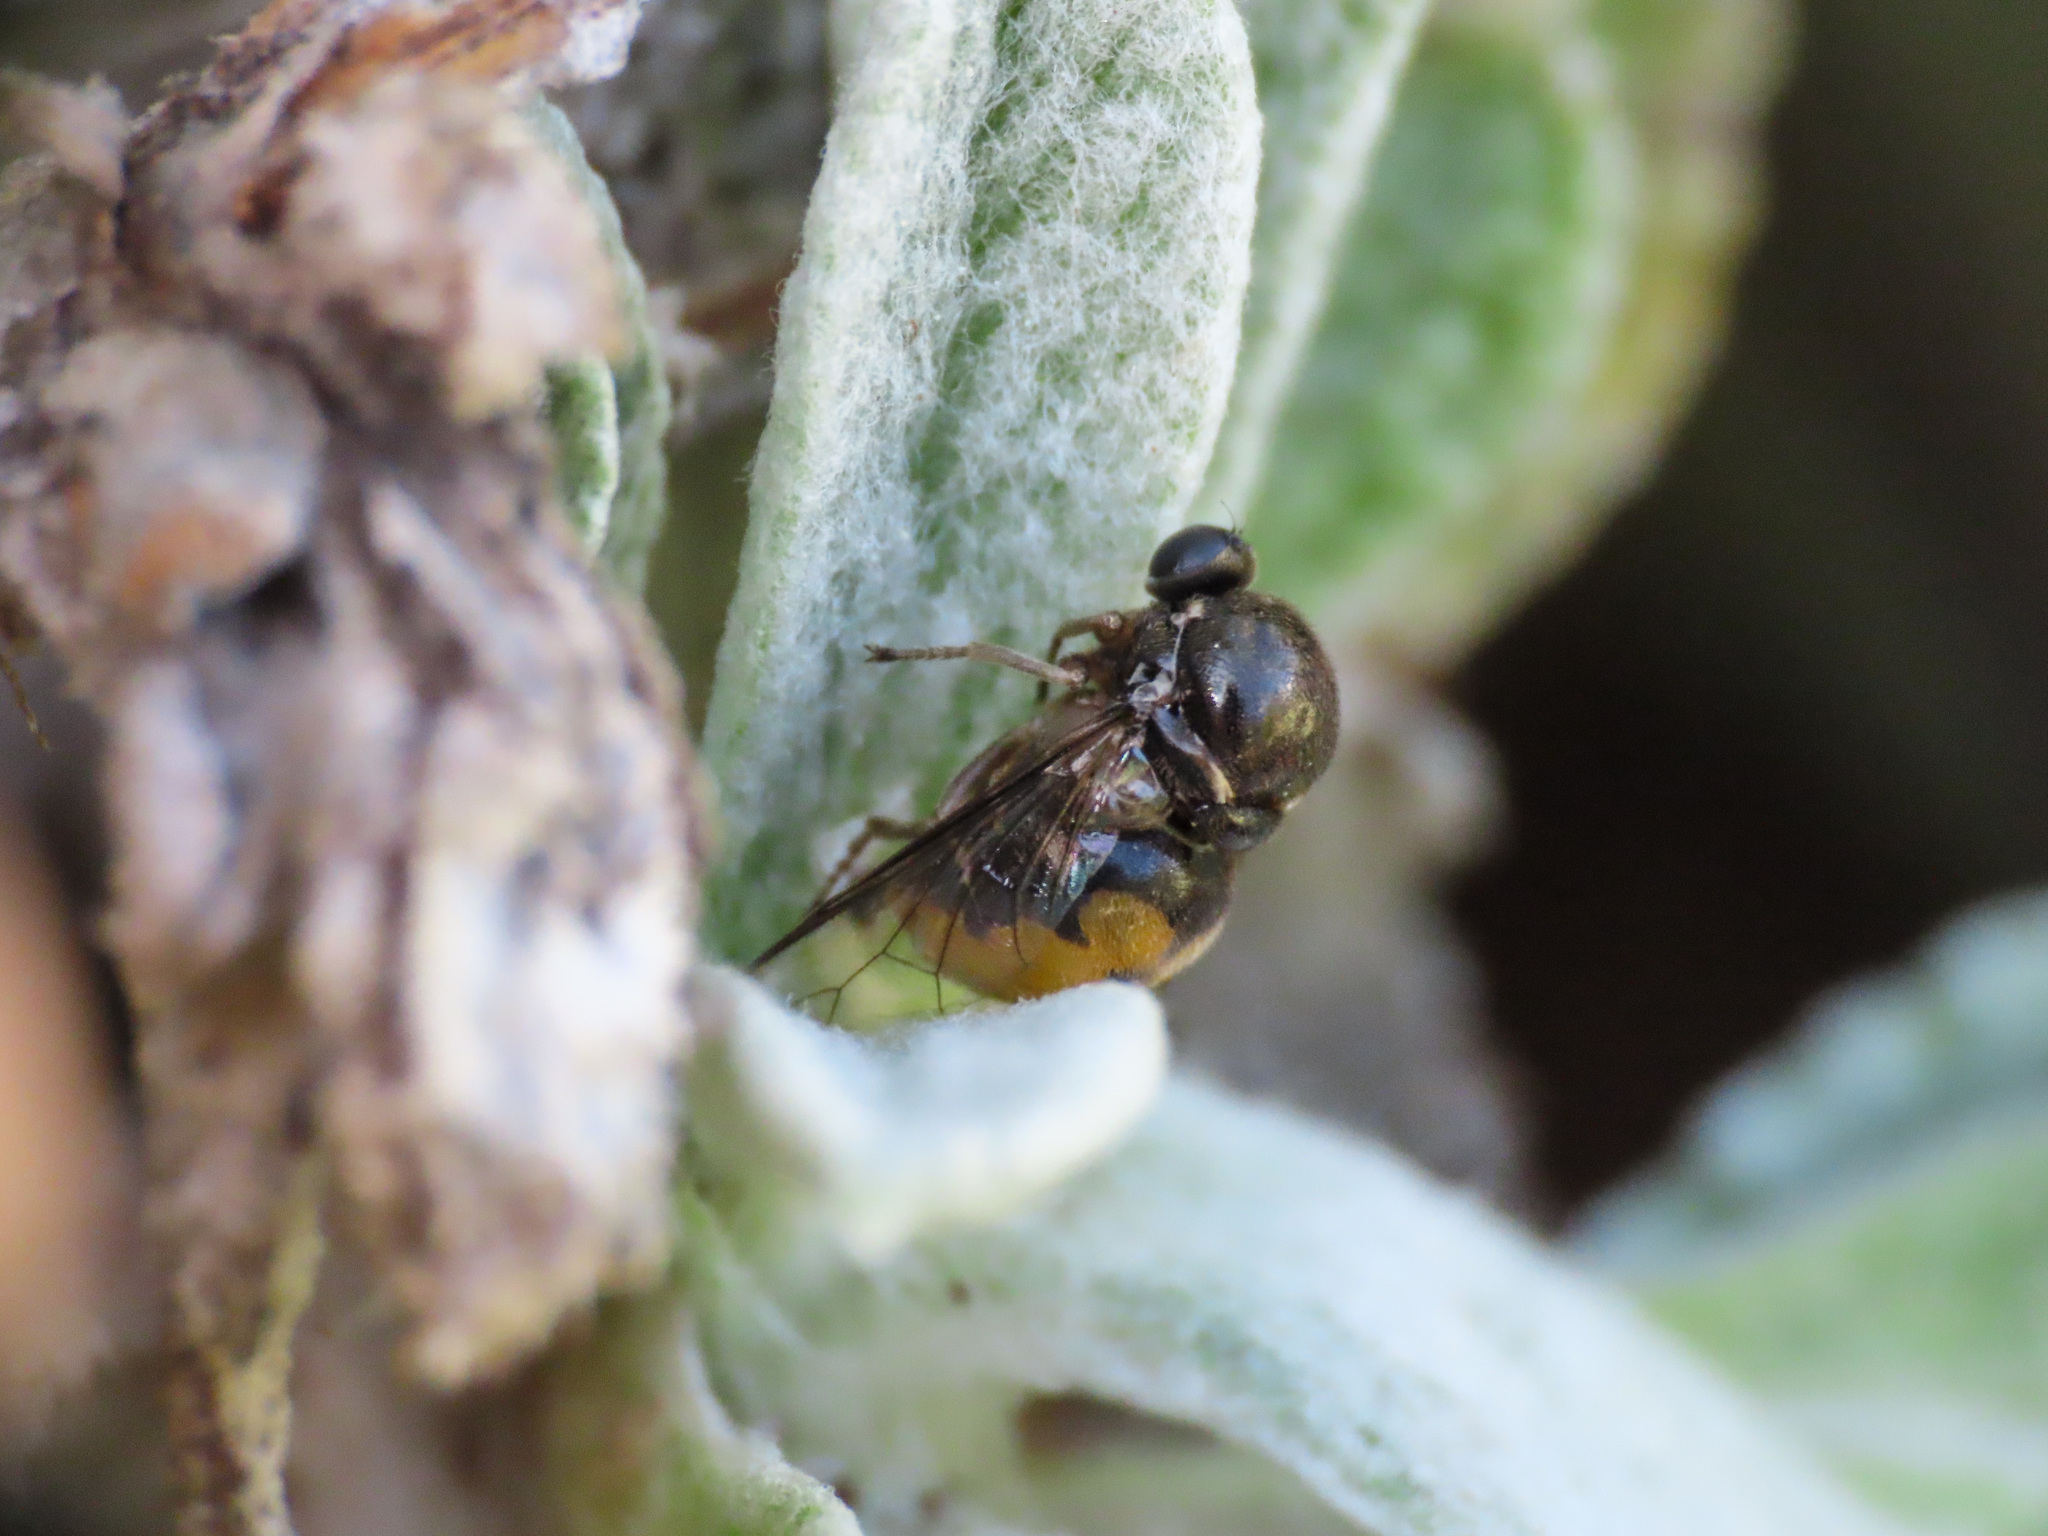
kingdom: Animalia
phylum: Arthropoda
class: Insecta
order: Diptera
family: Acroceridae
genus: Acrocera
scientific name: Acrocera orbicula
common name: Top-horned hunchback
